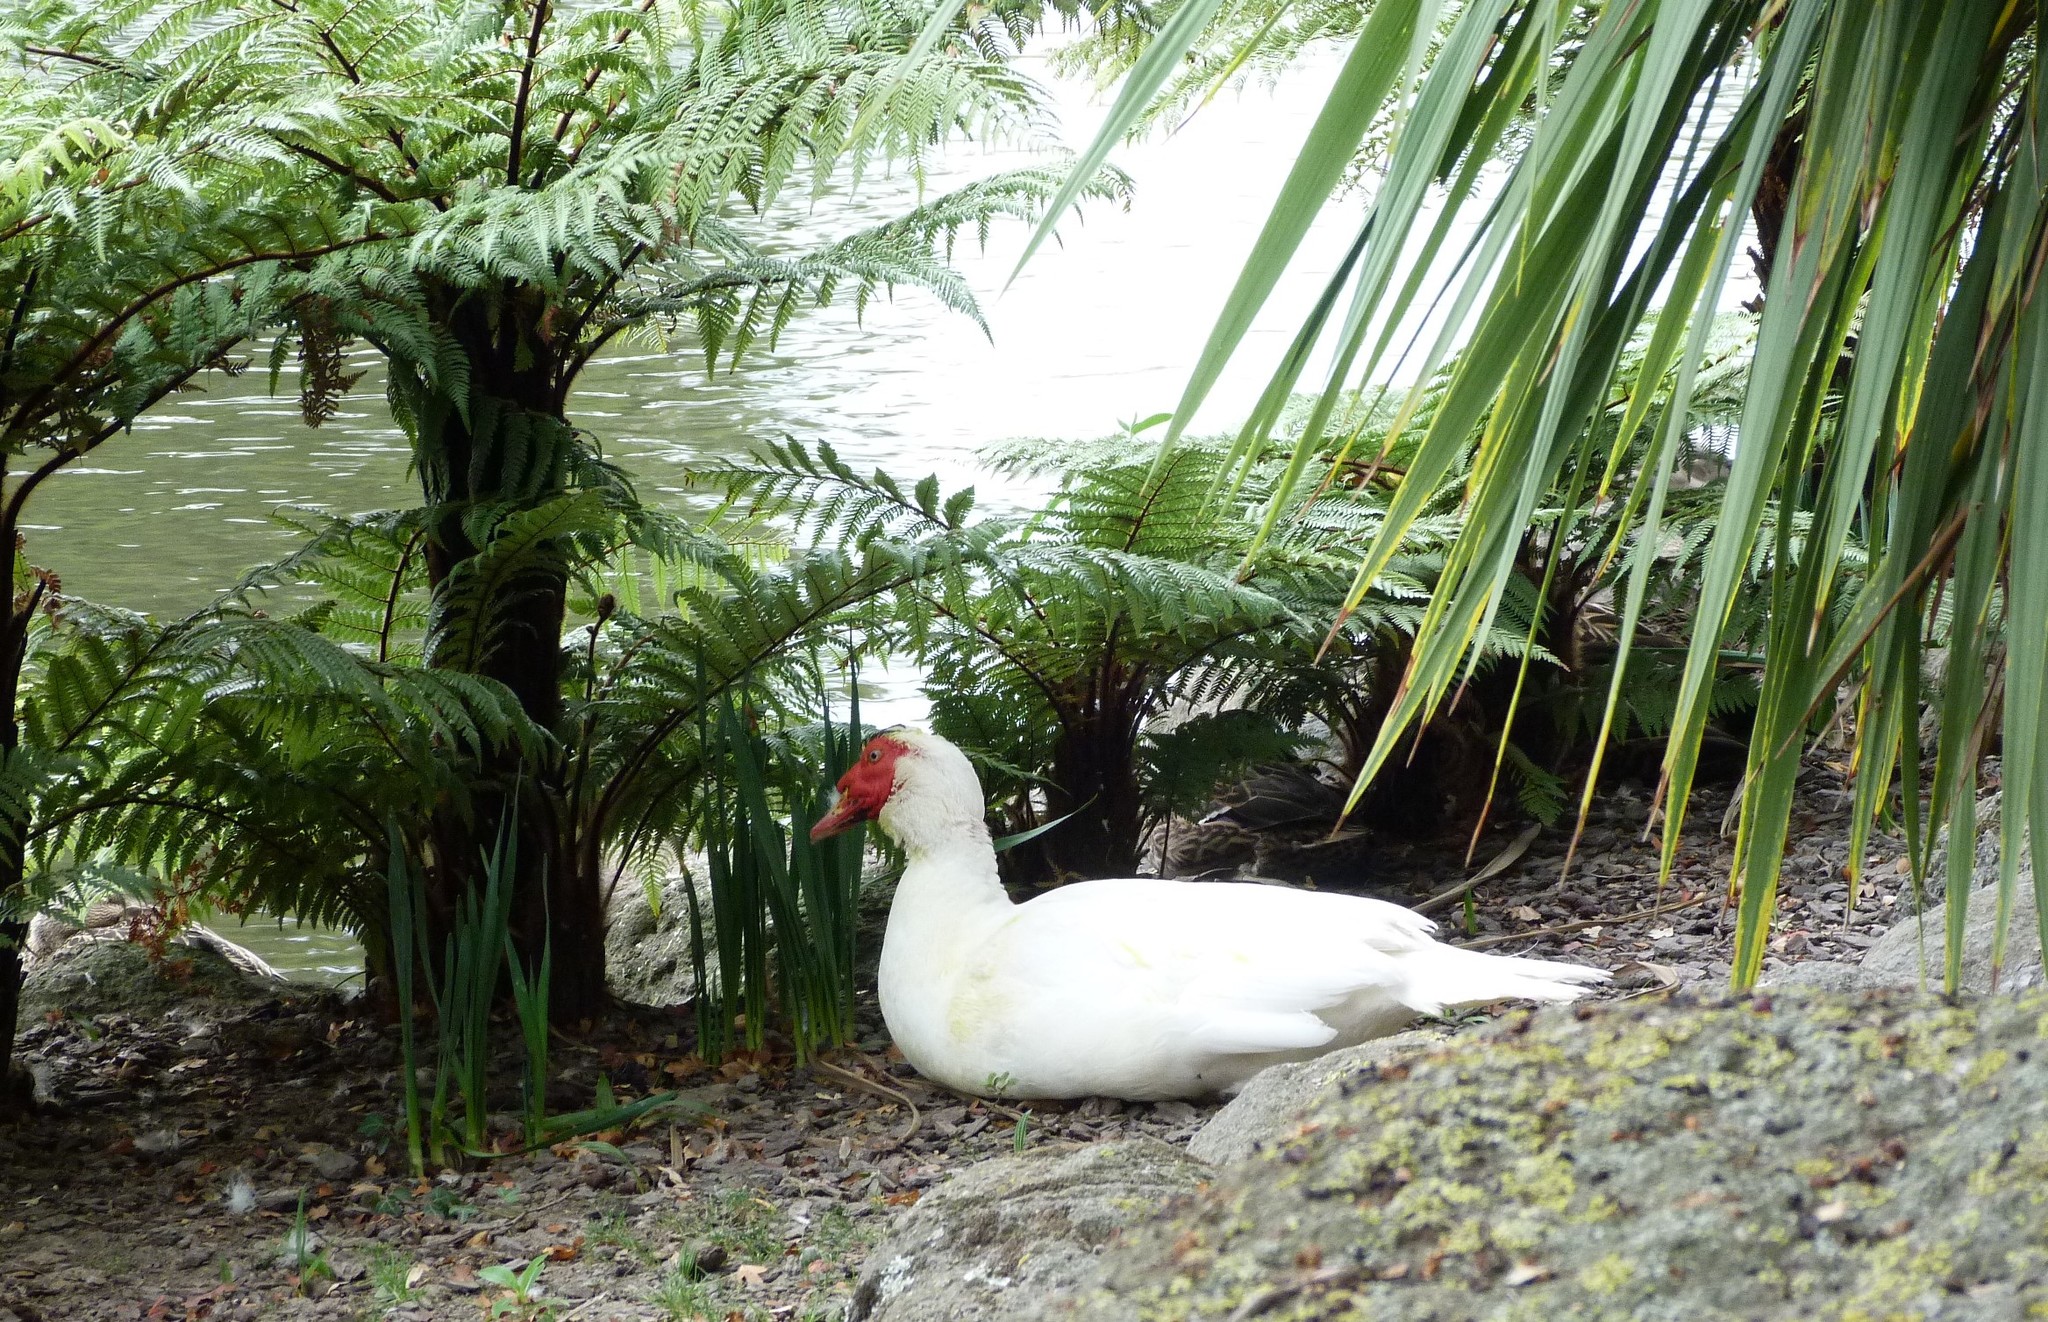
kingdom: Animalia
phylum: Chordata
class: Aves
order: Anseriformes
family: Anatidae
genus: Cairina
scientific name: Cairina moschata
